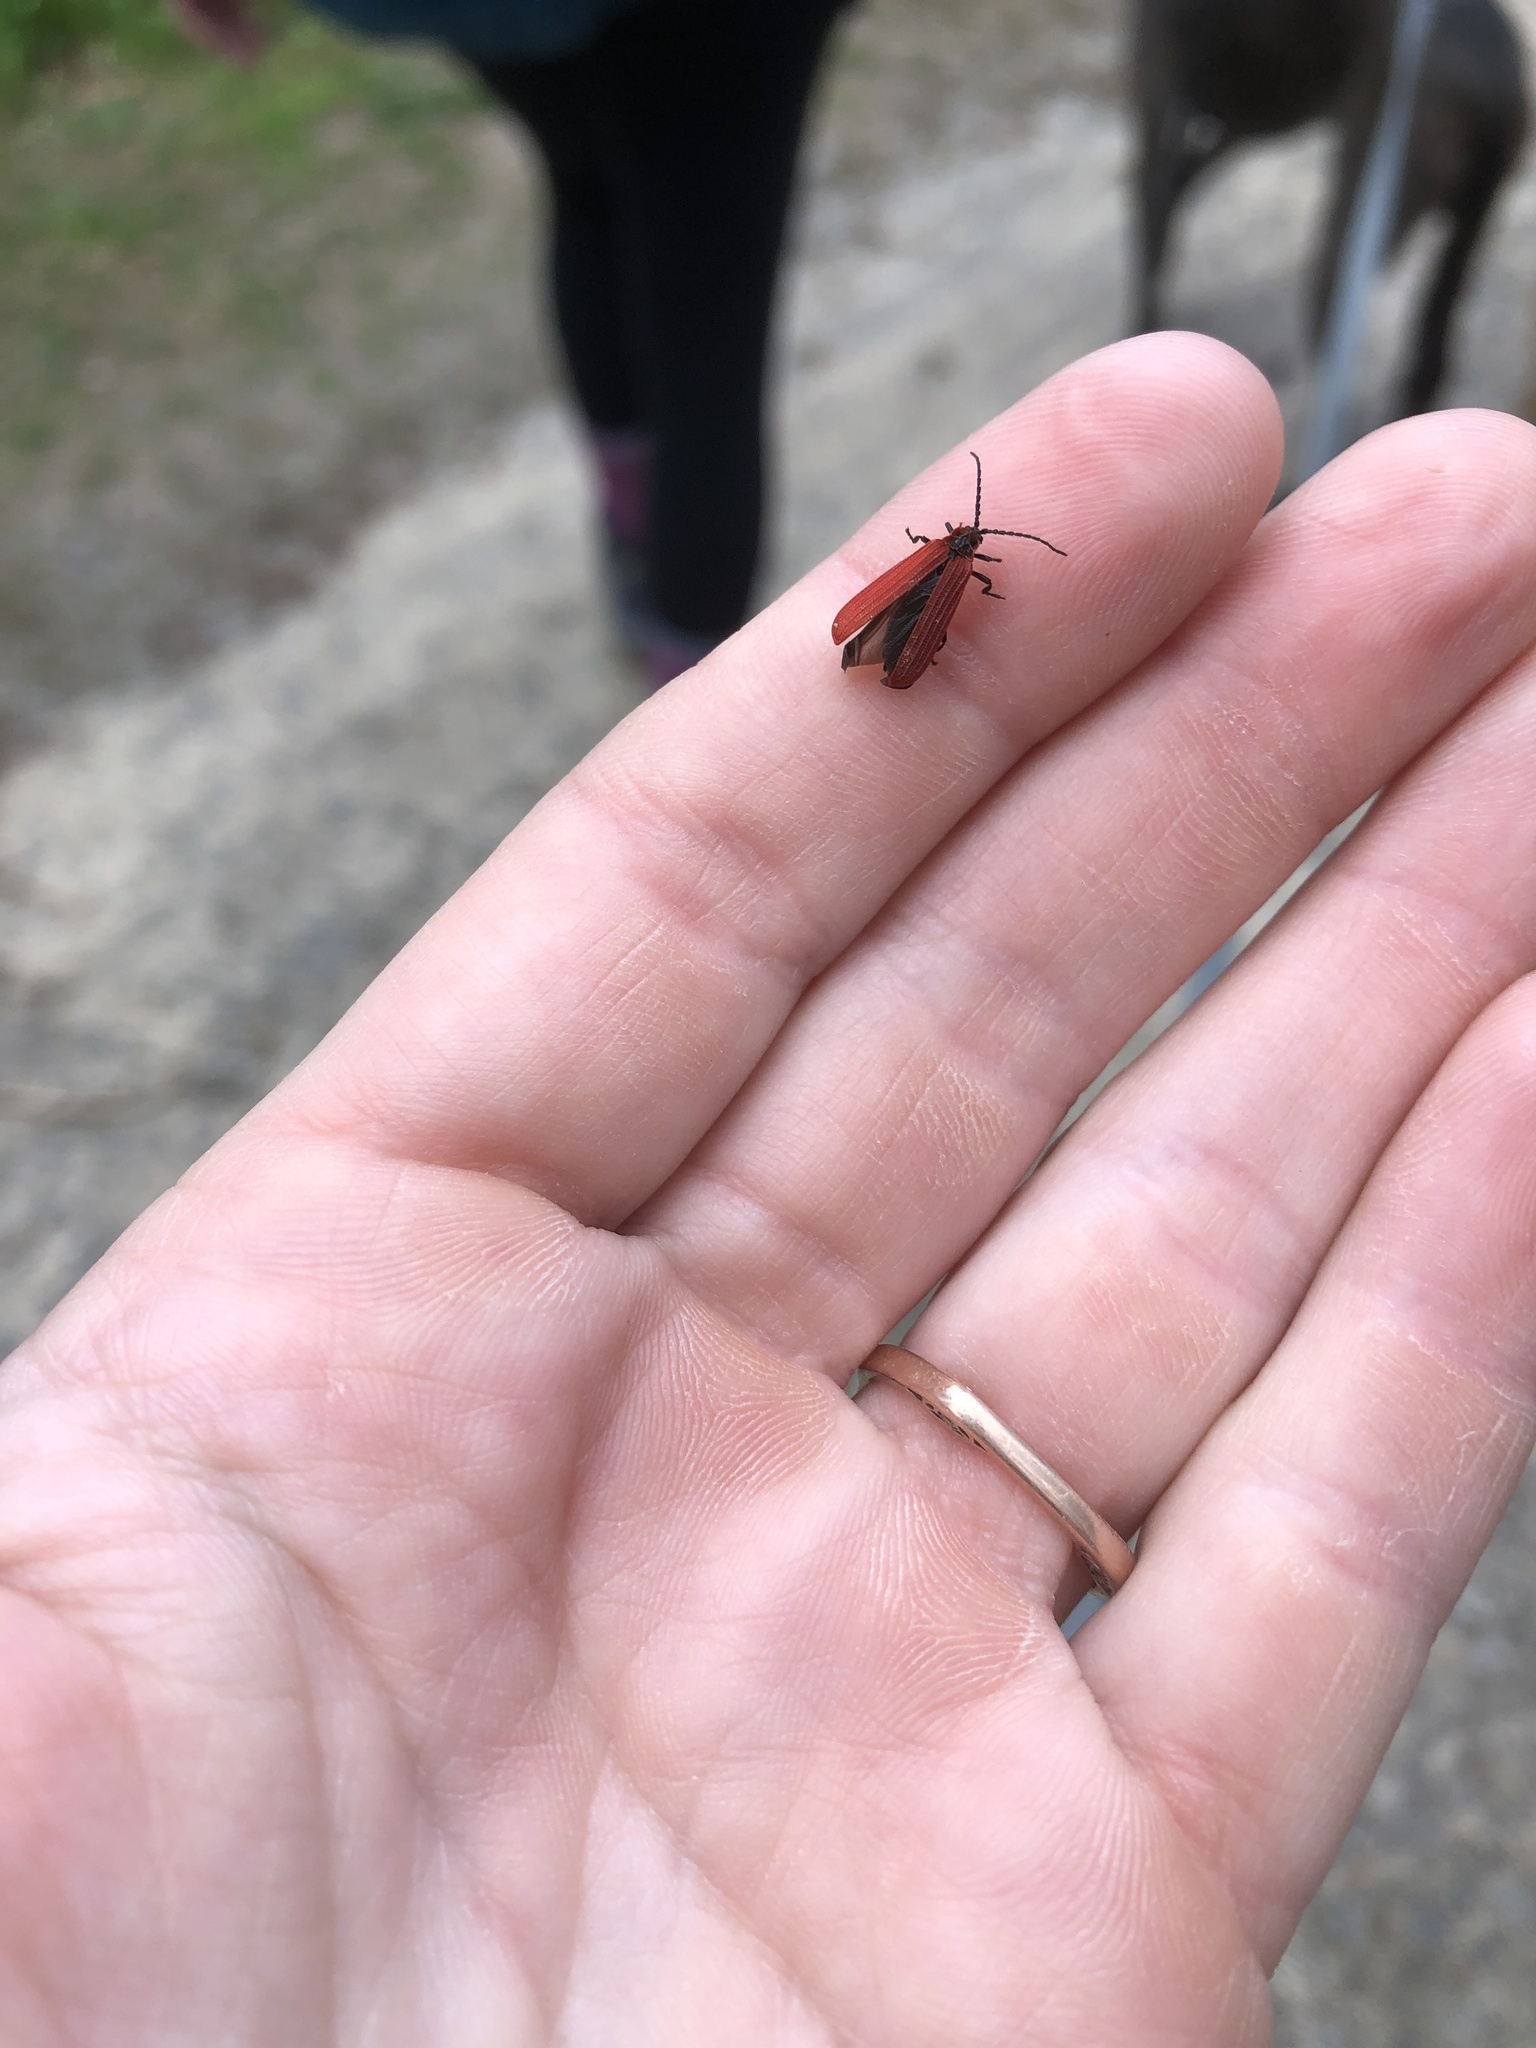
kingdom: Animalia
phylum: Arthropoda
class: Insecta
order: Coleoptera
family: Lycidae
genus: Dictyoptera
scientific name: Dictyoptera aurora
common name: Golden net-winged beetle
